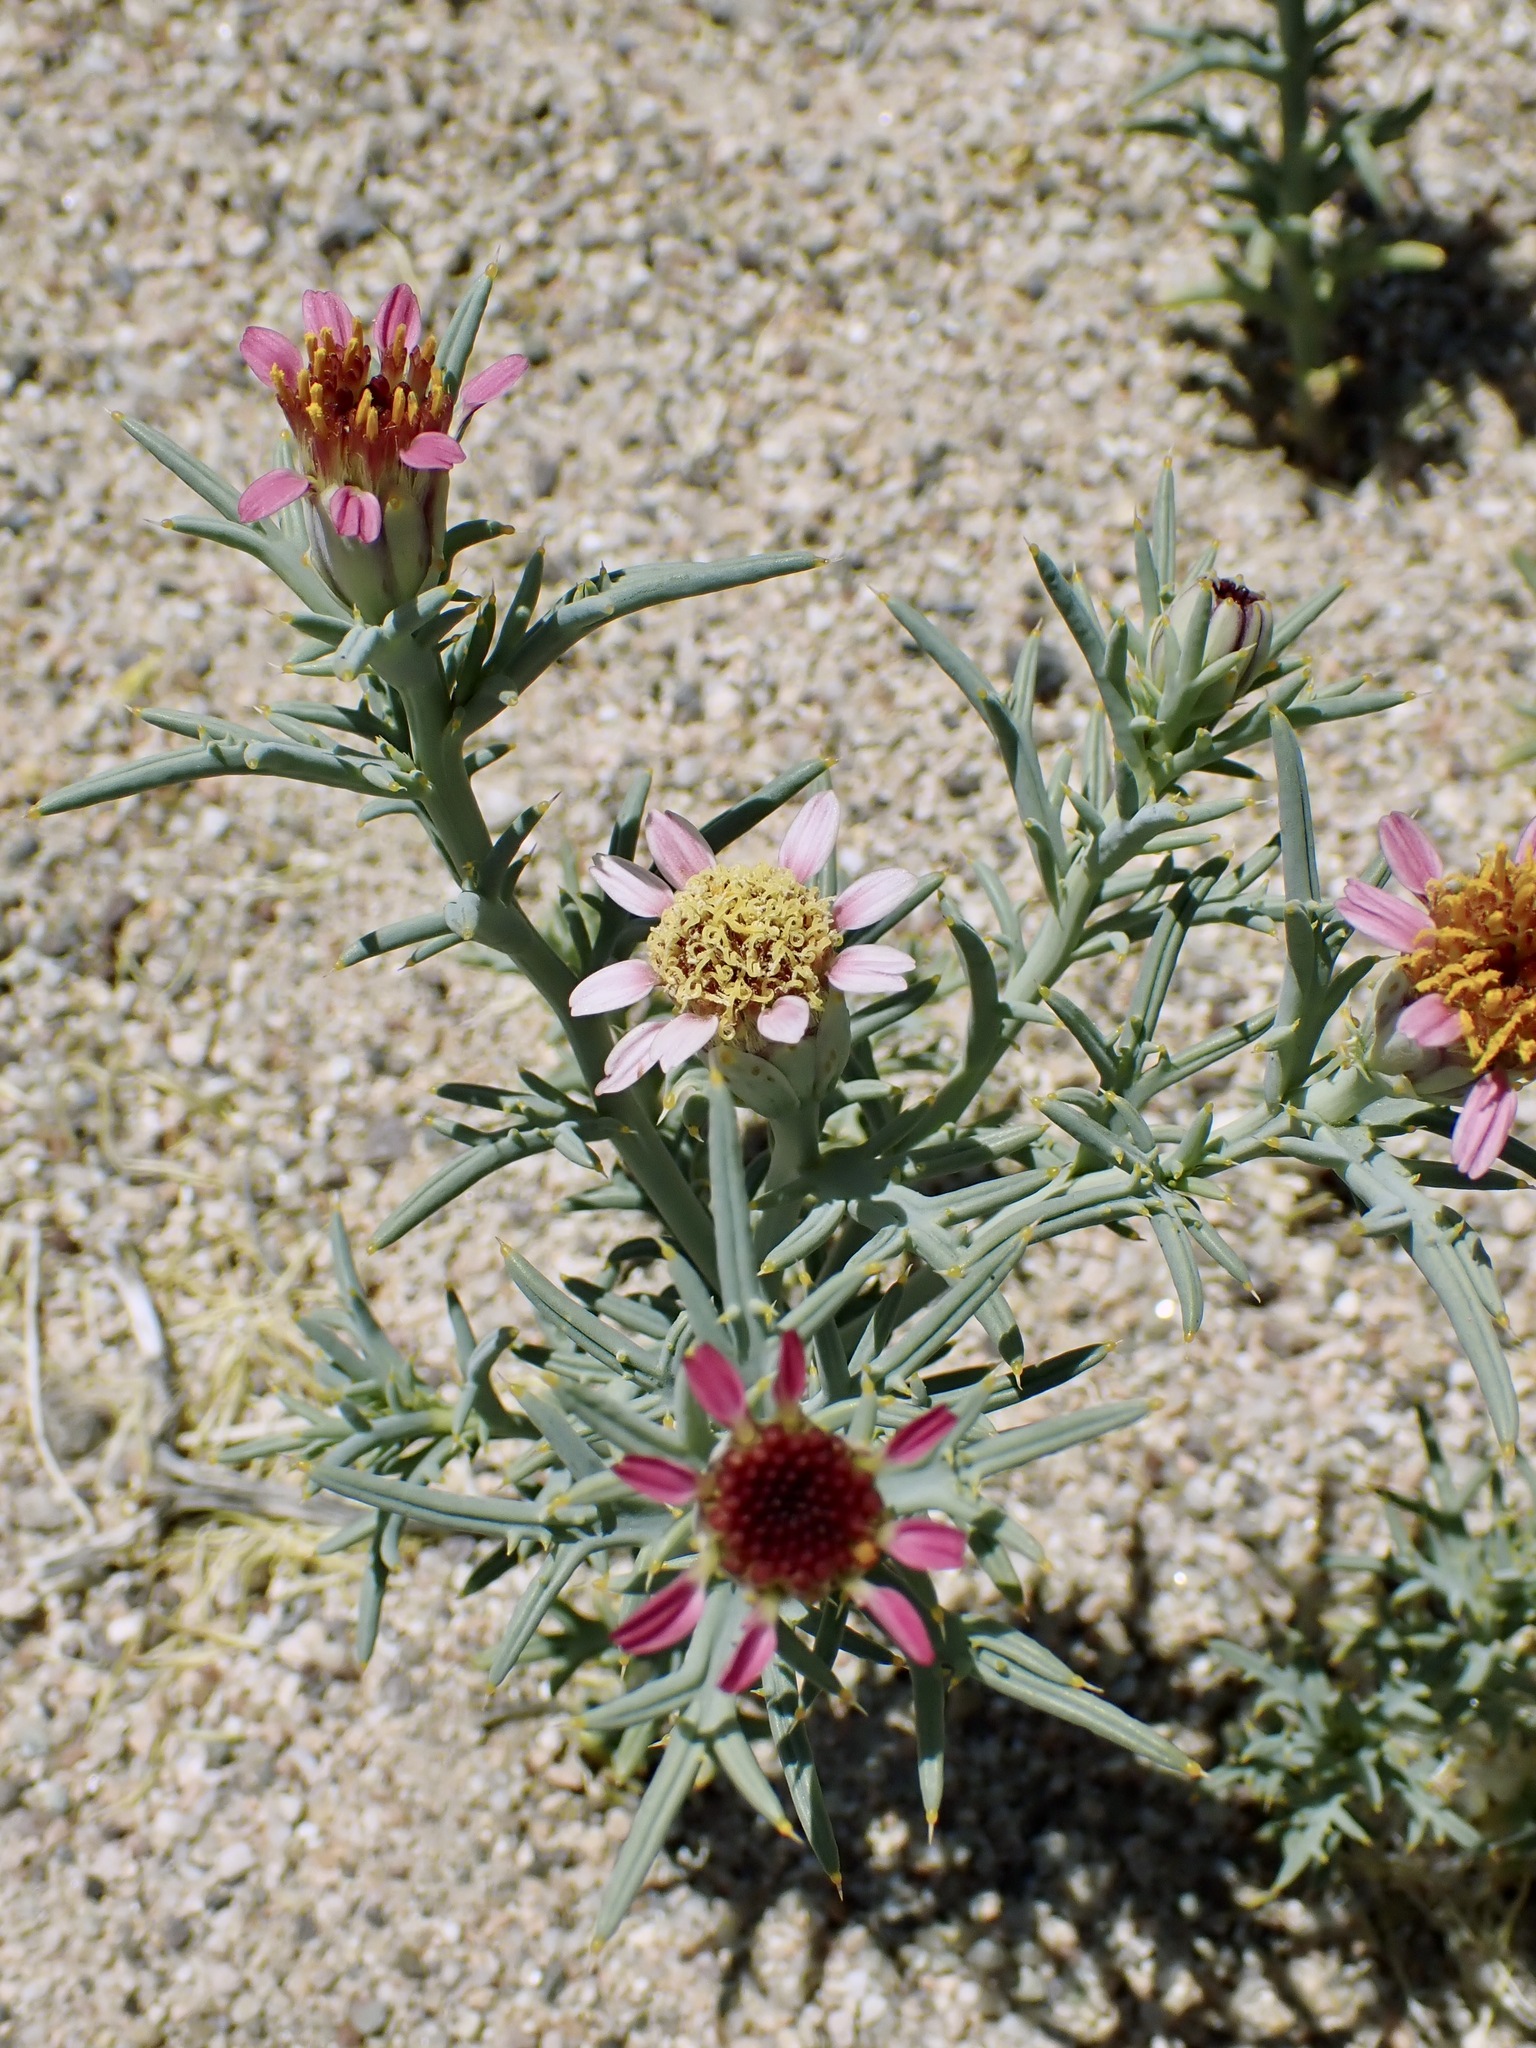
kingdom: Plantae
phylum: Tracheophyta
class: Magnoliopsida
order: Asterales
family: Asteraceae
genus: Nicolletia
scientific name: Nicolletia occidentalis
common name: Hole-in-the-sand-plant
